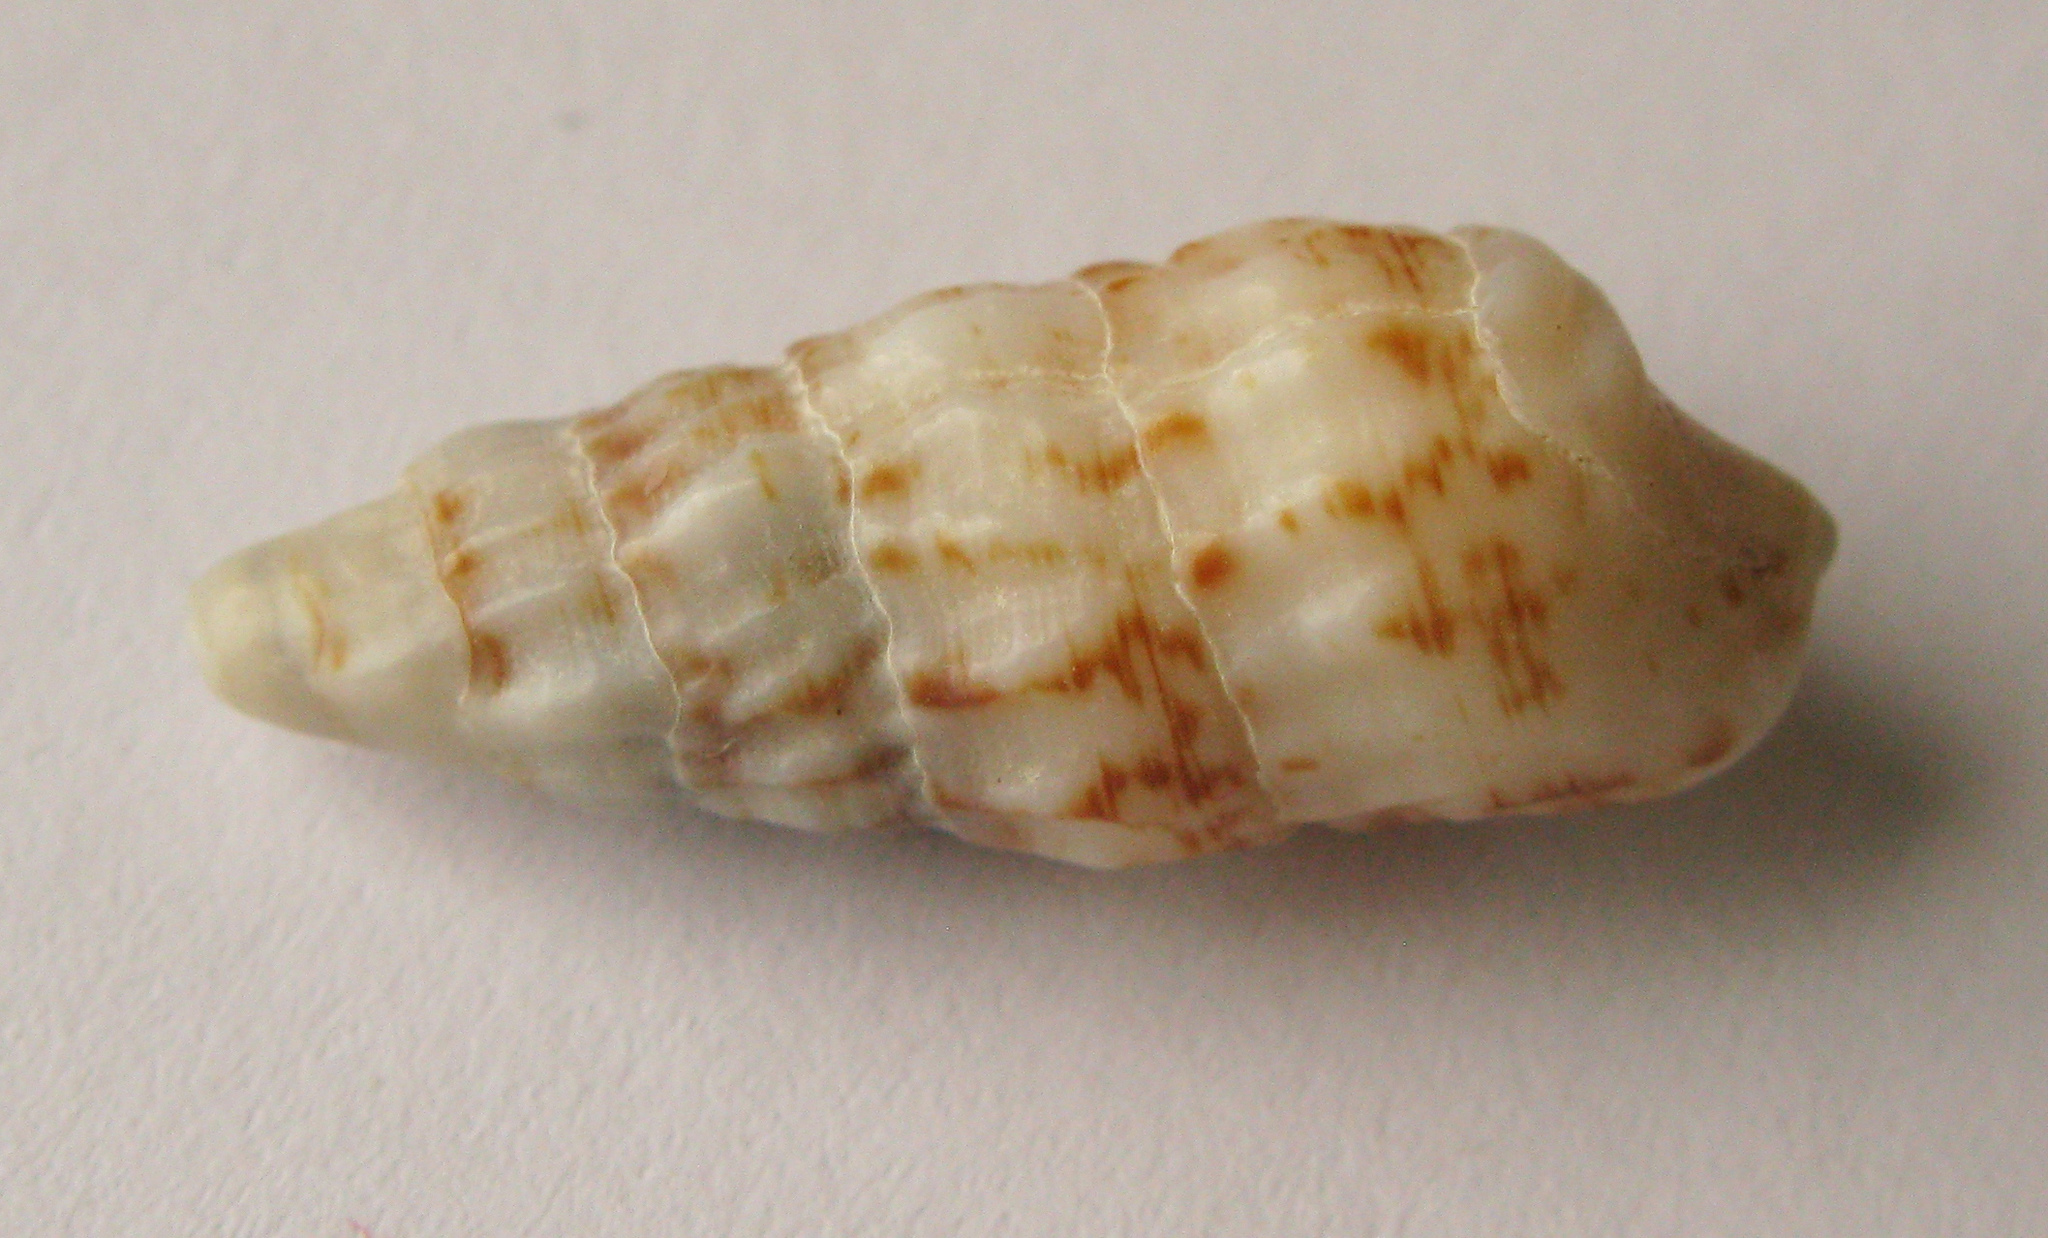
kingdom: Animalia
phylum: Mollusca
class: Gastropoda
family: Cerithiidae
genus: Cerithium
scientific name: Cerithium vulgatum
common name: European cerith
